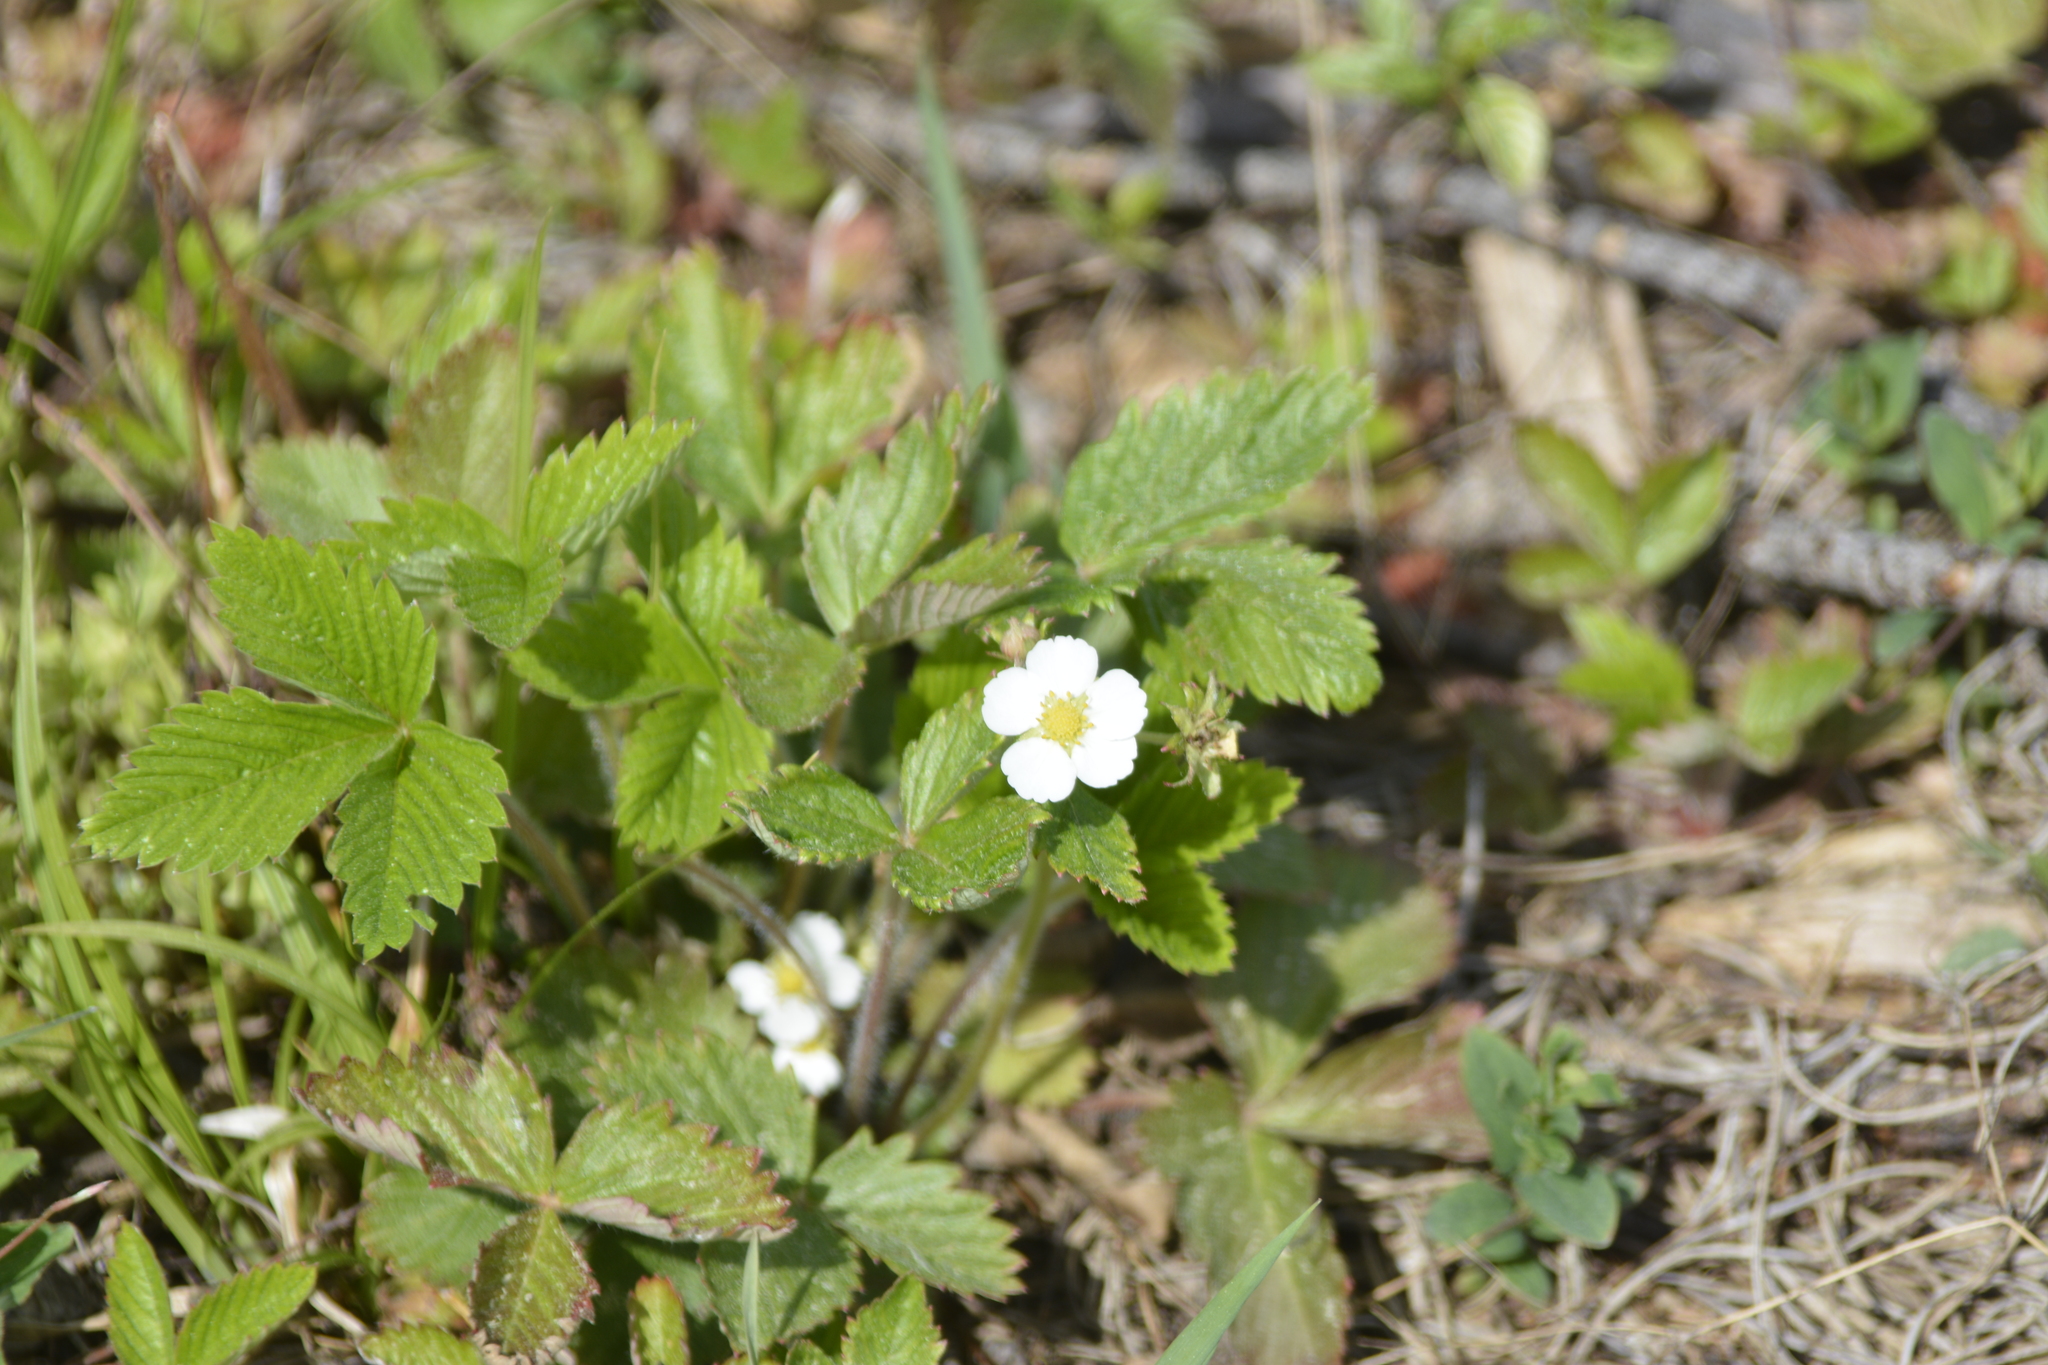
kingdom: Plantae
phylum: Tracheophyta
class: Magnoliopsida
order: Rosales
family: Rosaceae
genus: Fragaria
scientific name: Fragaria vesca
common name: Wild strawberry
